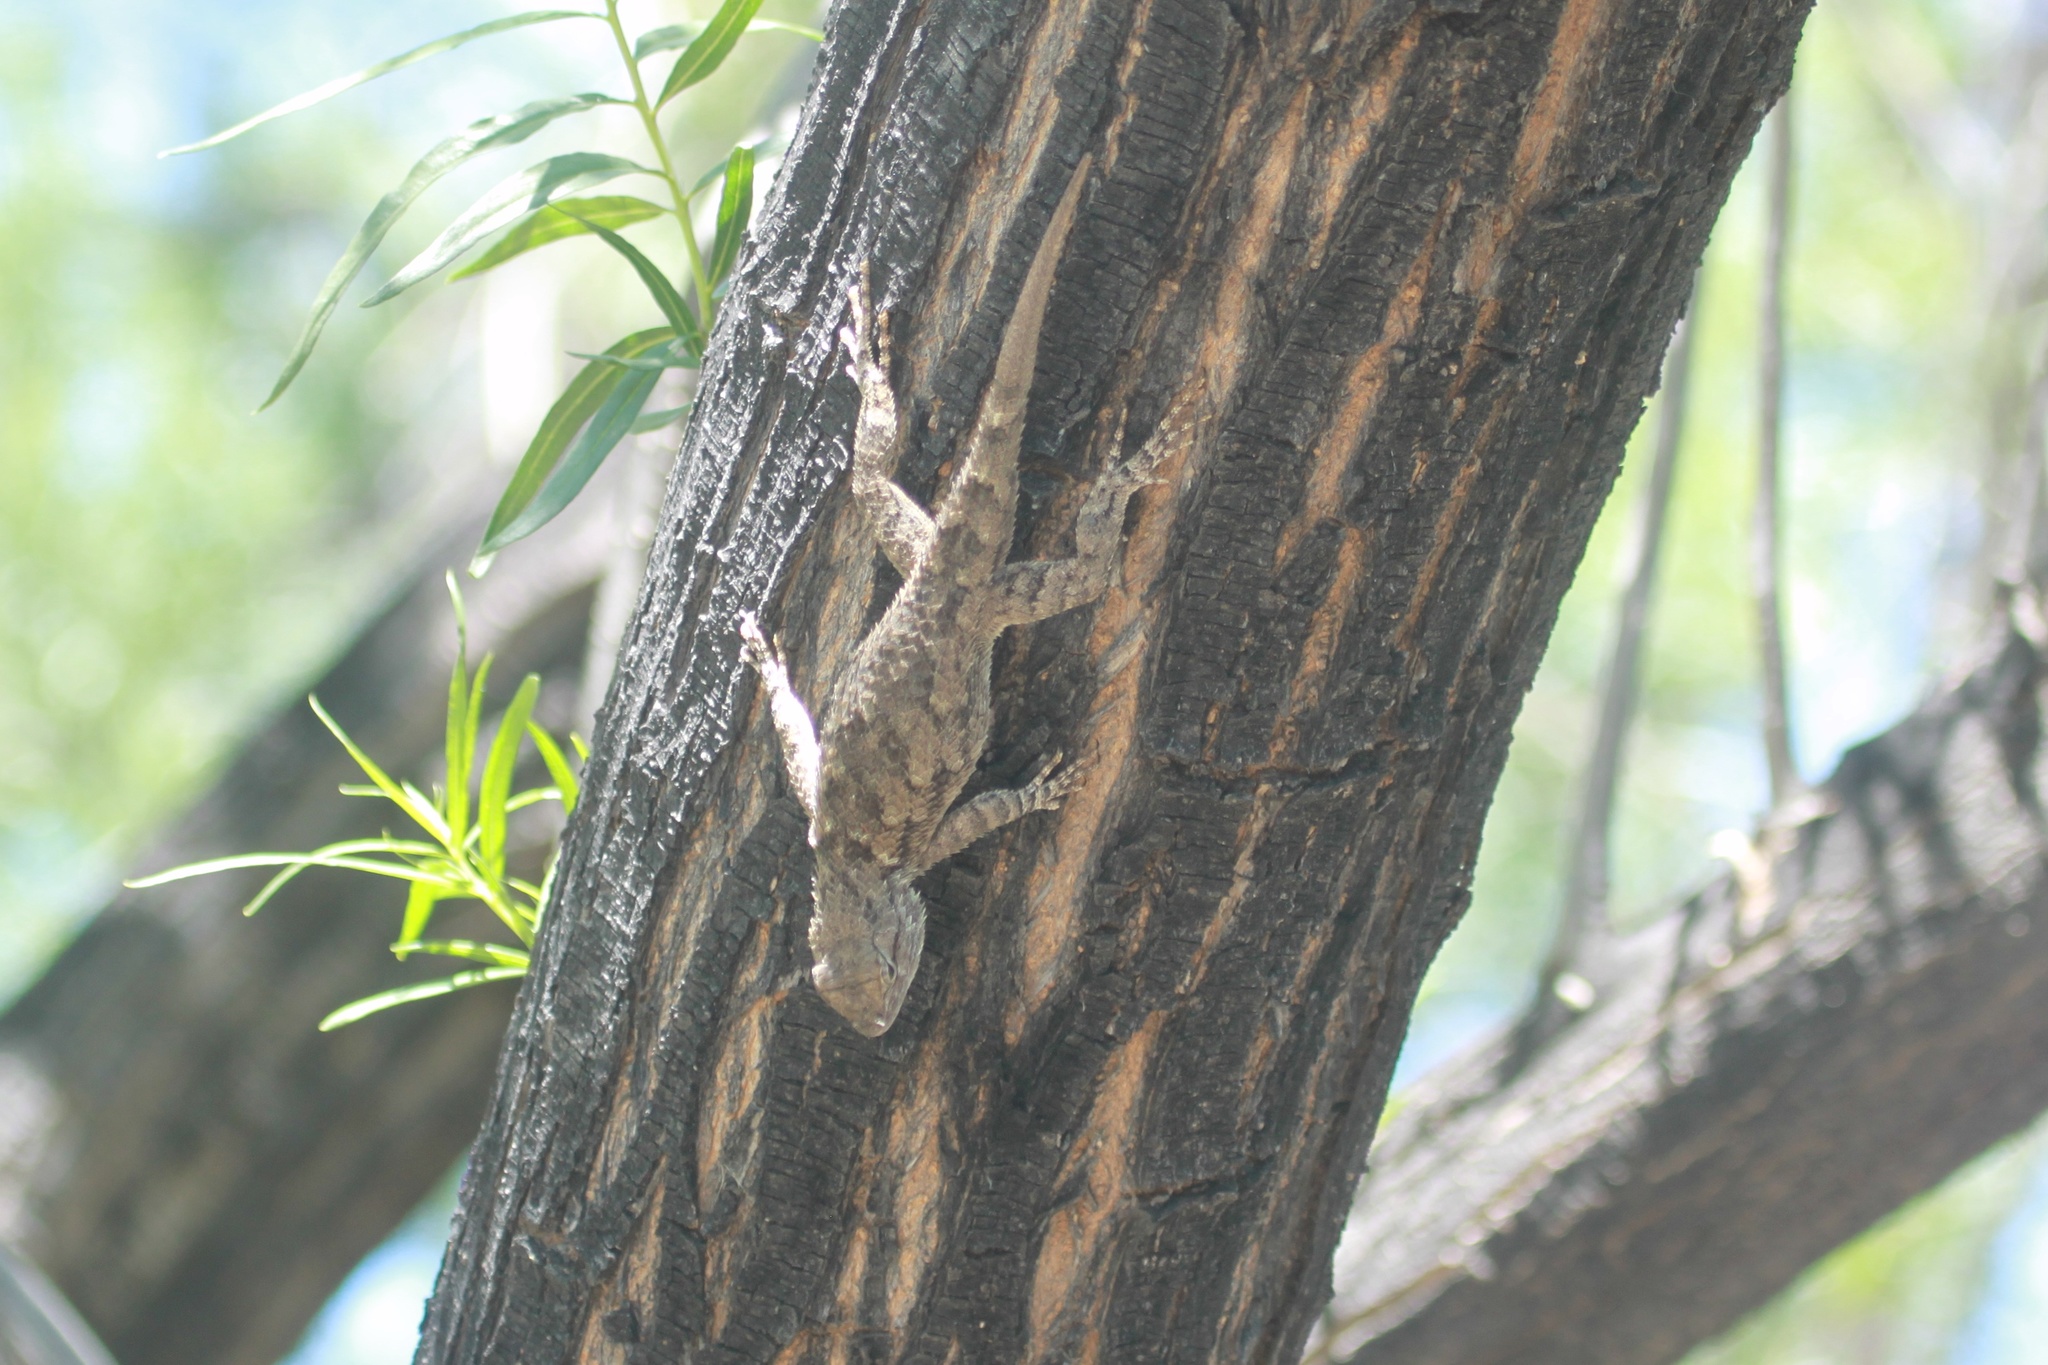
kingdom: Animalia
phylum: Chordata
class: Squamata
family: Phrynosomatidae
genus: Sceloporus
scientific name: Sceloporus clarkii
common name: Clark's spiny lizard
